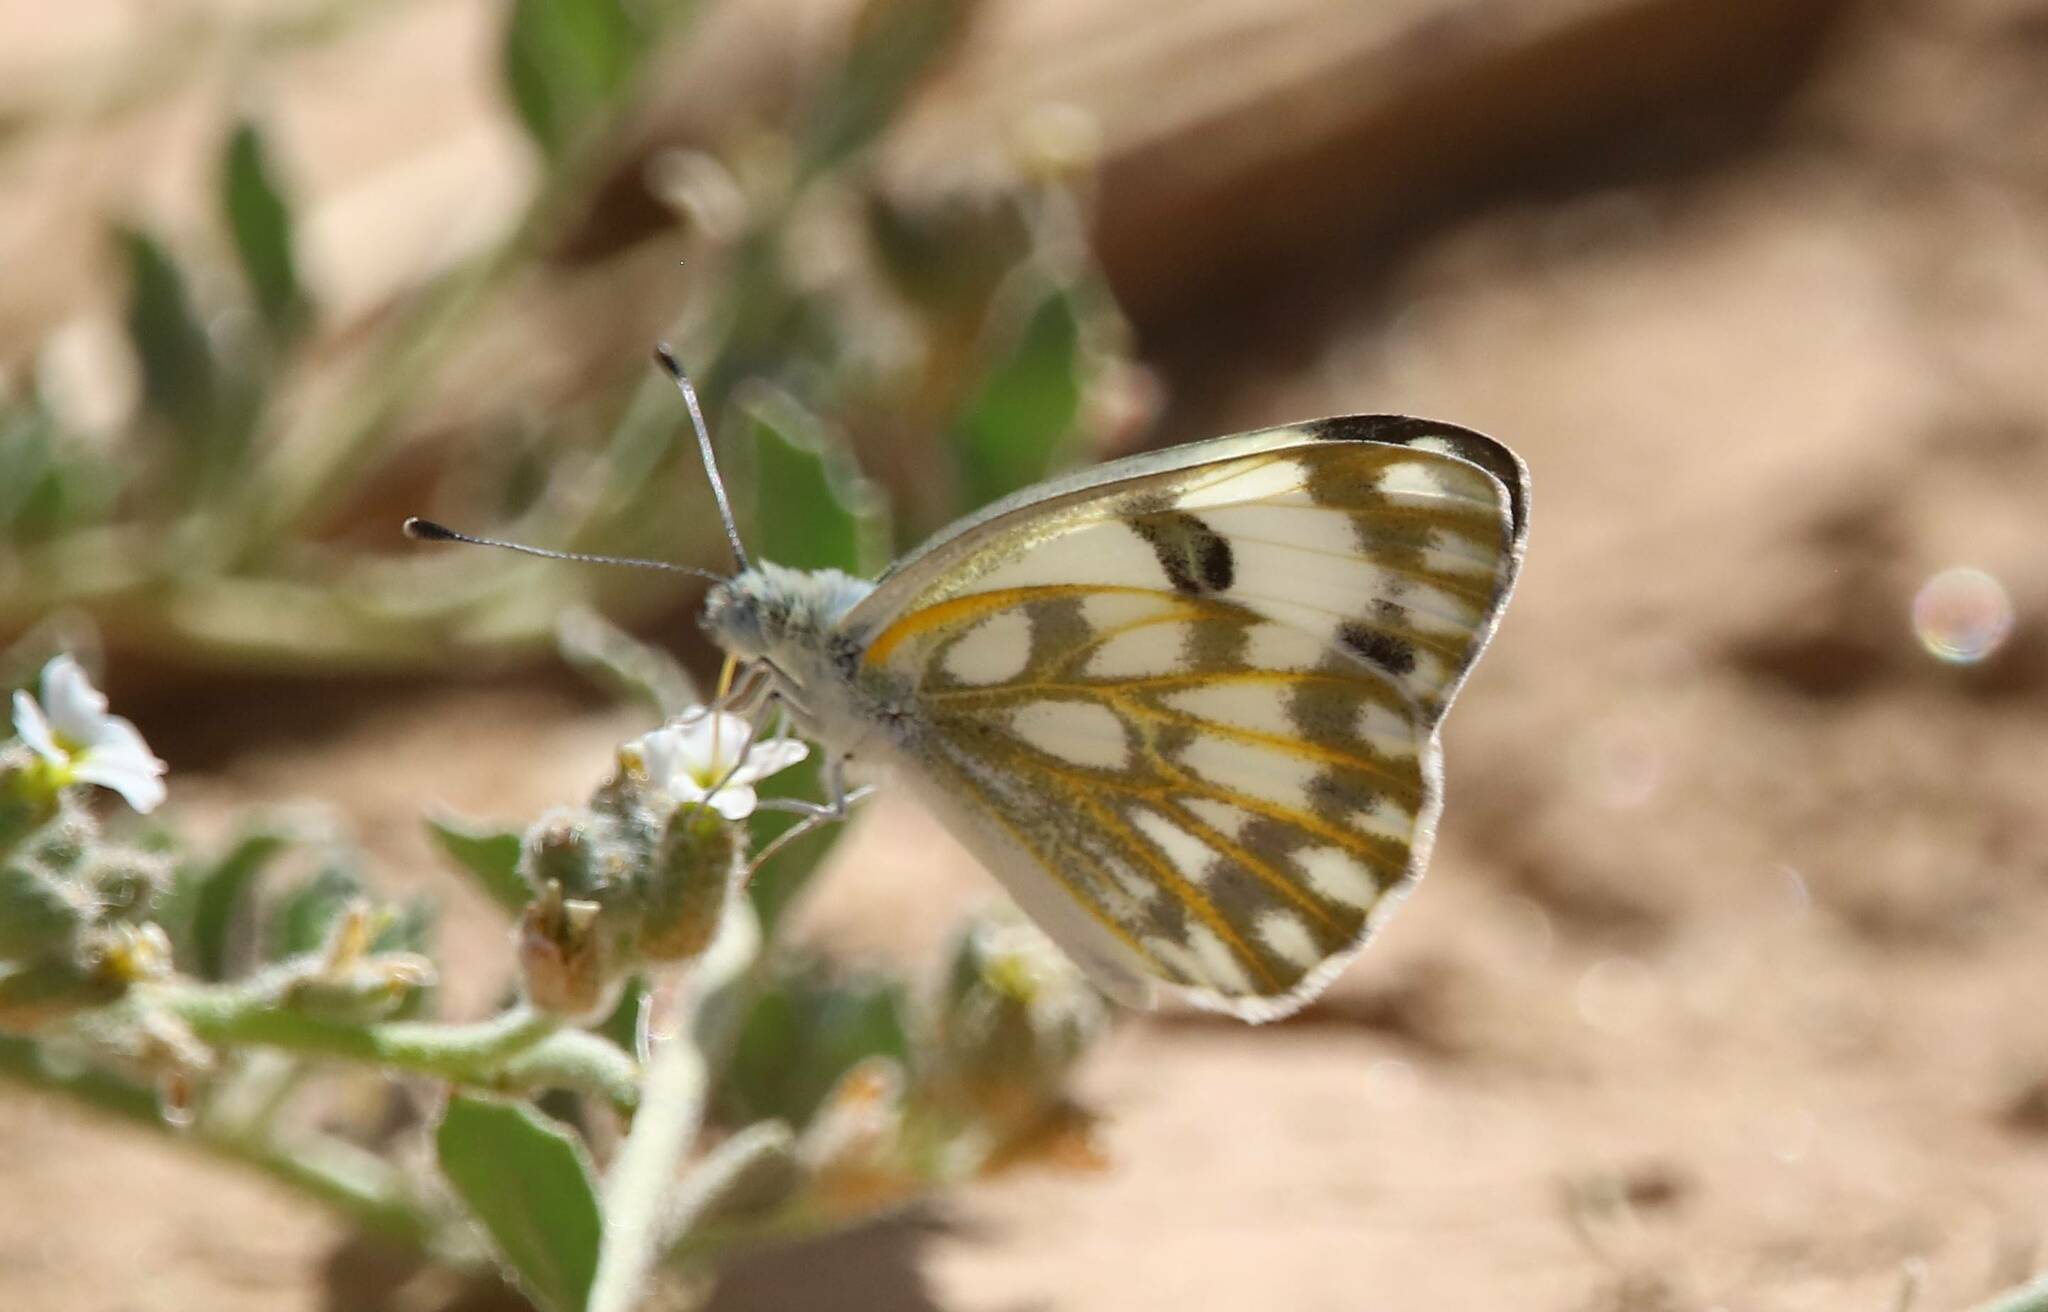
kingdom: Animalia
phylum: Arthropoda
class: Insecta
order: Lepidoptera
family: Pieridae
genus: Pontia
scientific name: Pontia glauconome
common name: Desert bath white
